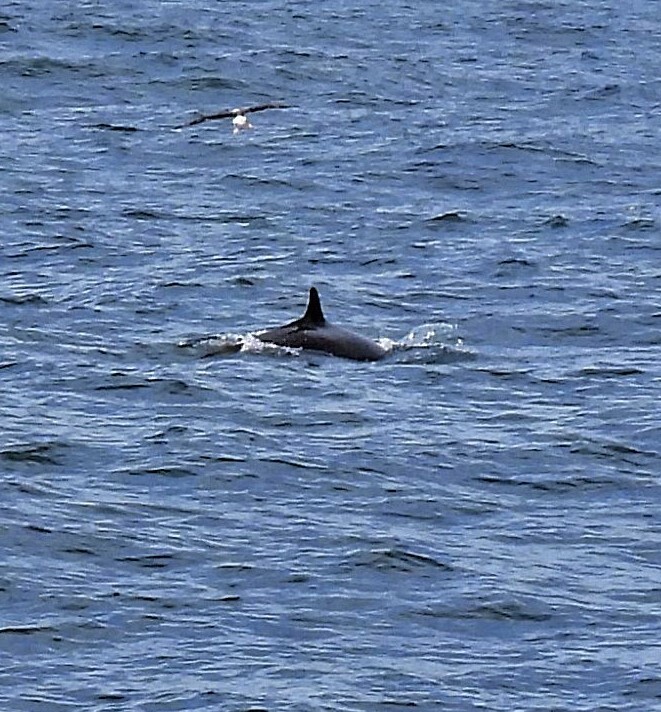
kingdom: Animalia
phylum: Chordata
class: Mammalia
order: Cetacea
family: Delphinidae
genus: Pseudorca
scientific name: Pseudorca crassidens
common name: False killer whale
